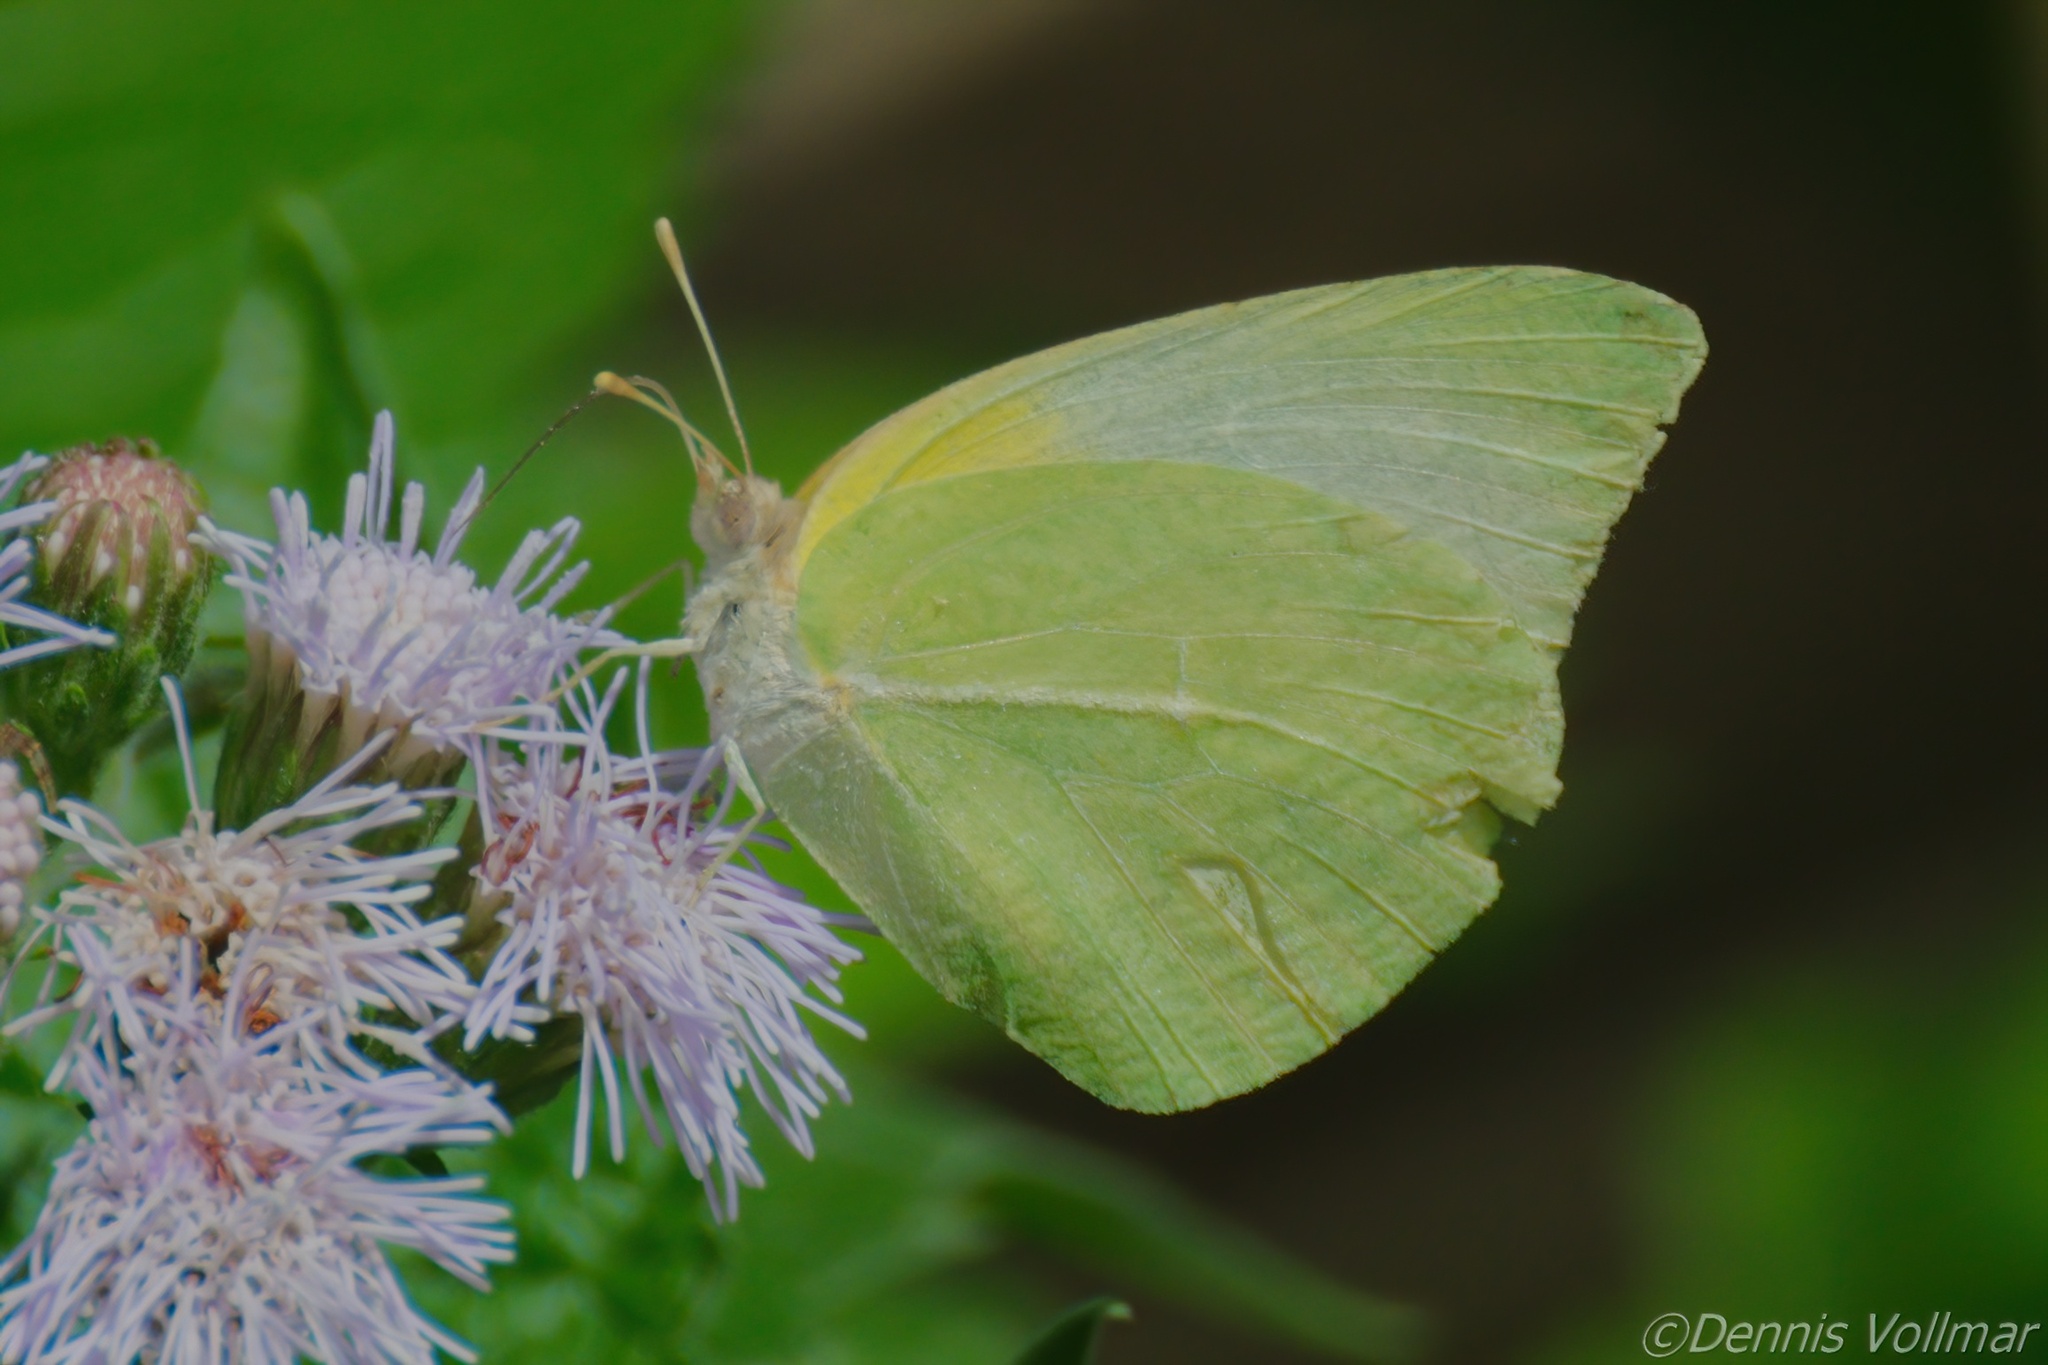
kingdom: Animalia
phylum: Arthropoda
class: Insecta
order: Lepidoptera
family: Pieridae
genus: Kricogonia
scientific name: Kricogonia lyside
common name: Guayacan sulphur,
